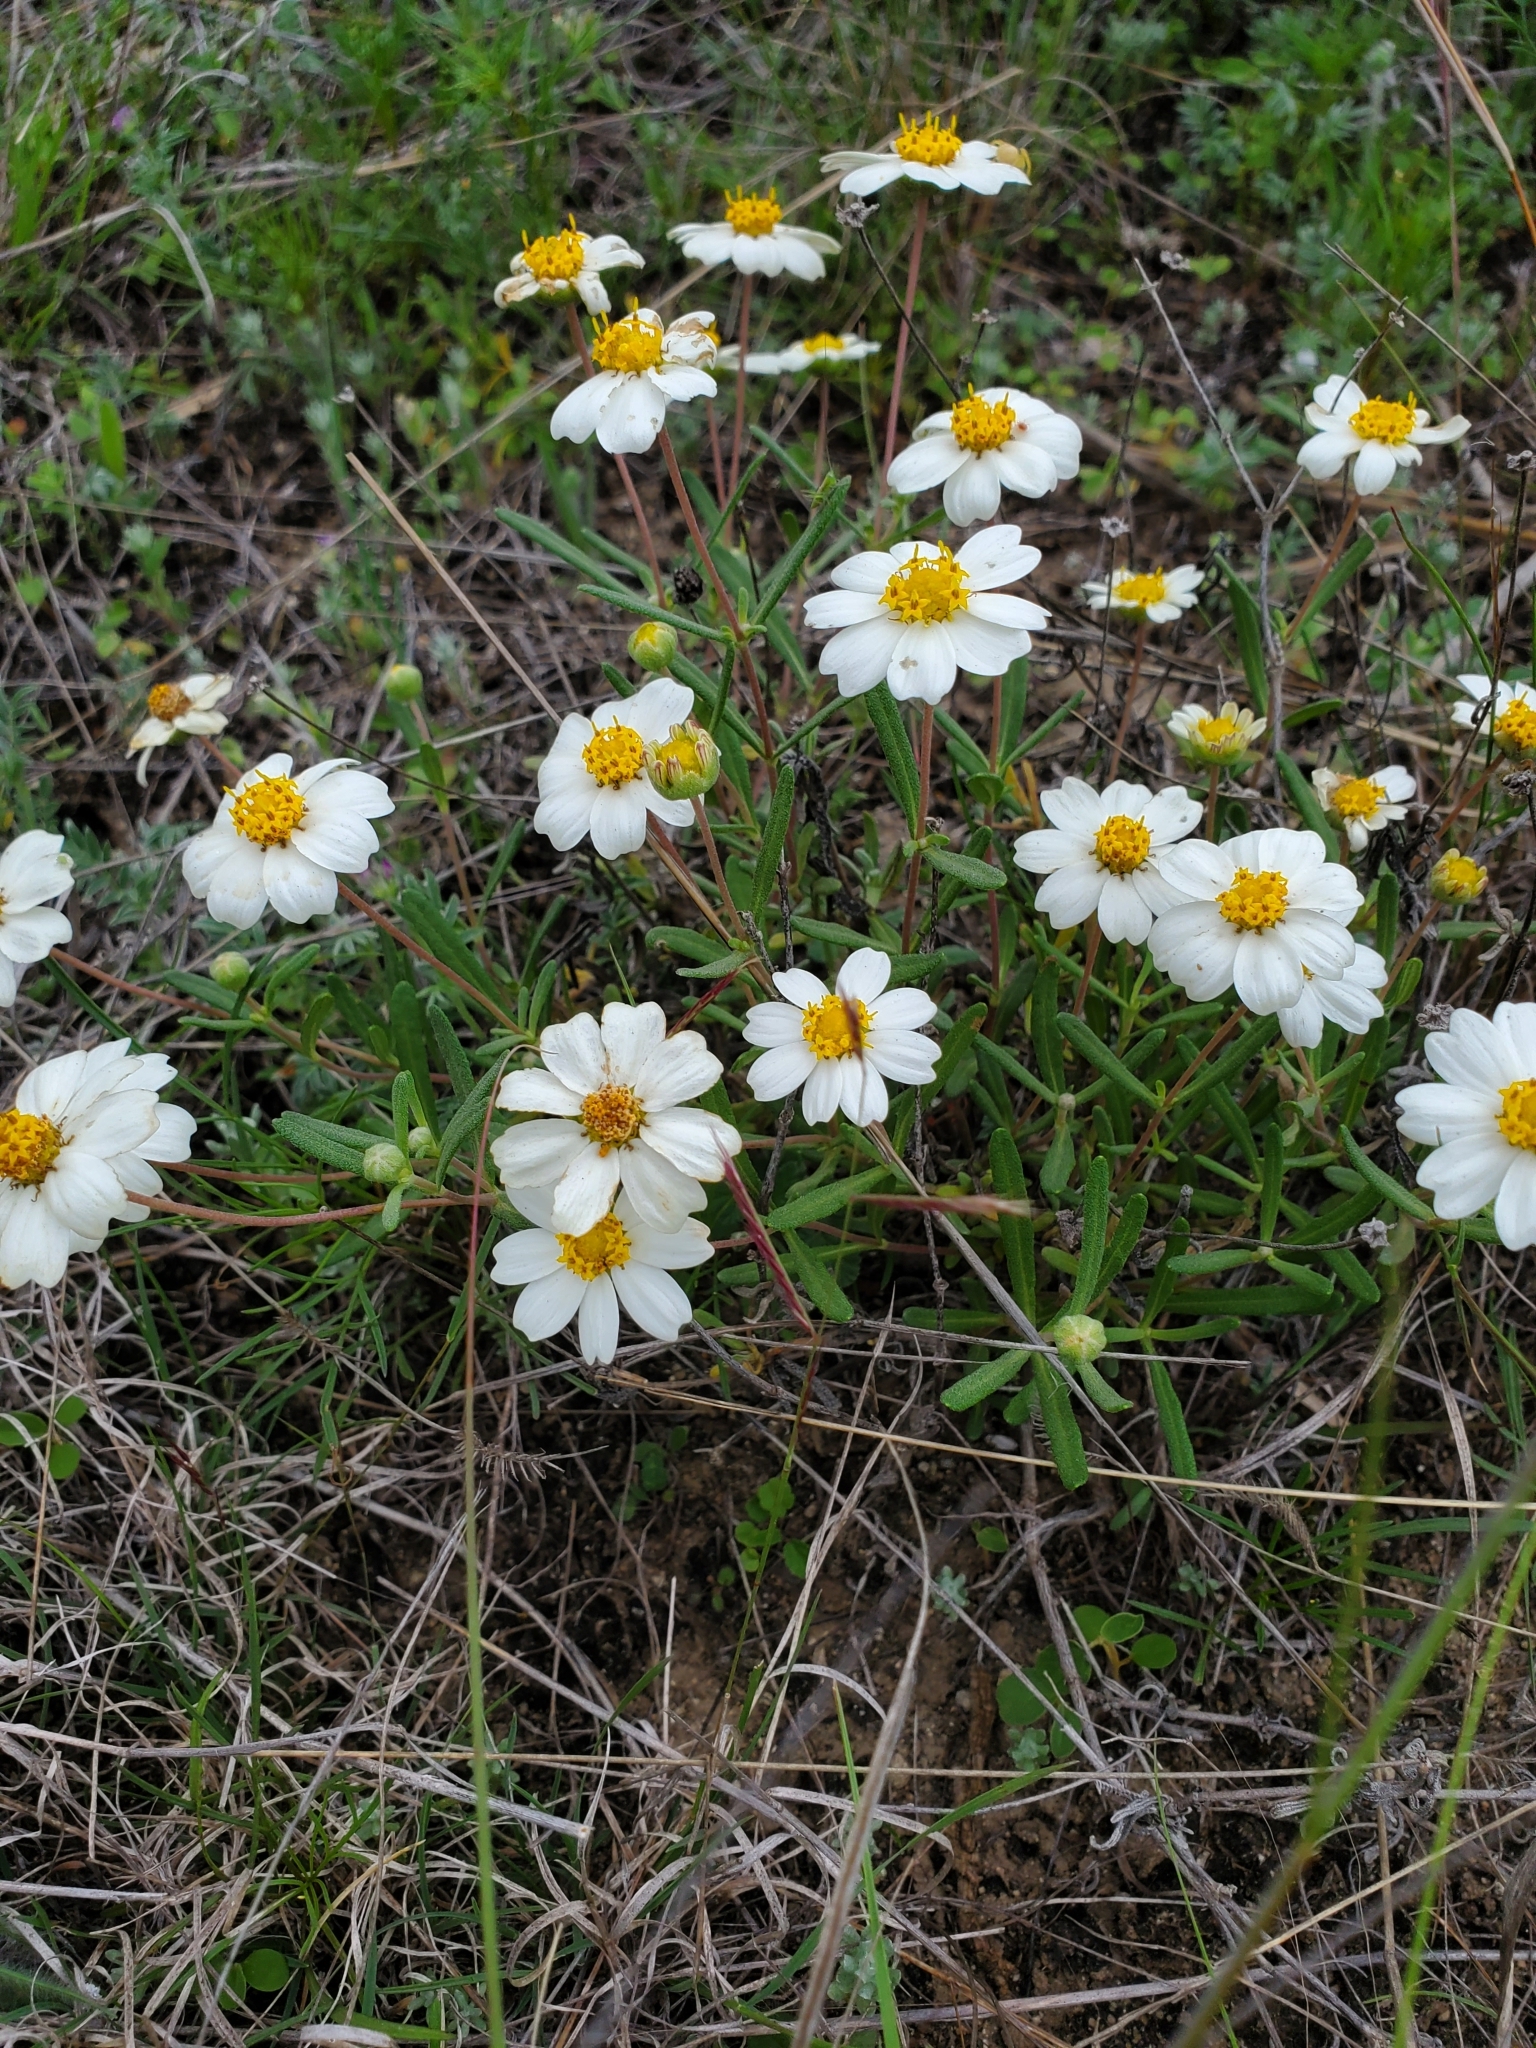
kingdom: Plantae
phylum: Tracheophyta
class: Magnoliopsida
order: Asterales
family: Asteraceae
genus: Melampodium
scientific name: Melampodium leucanthum
